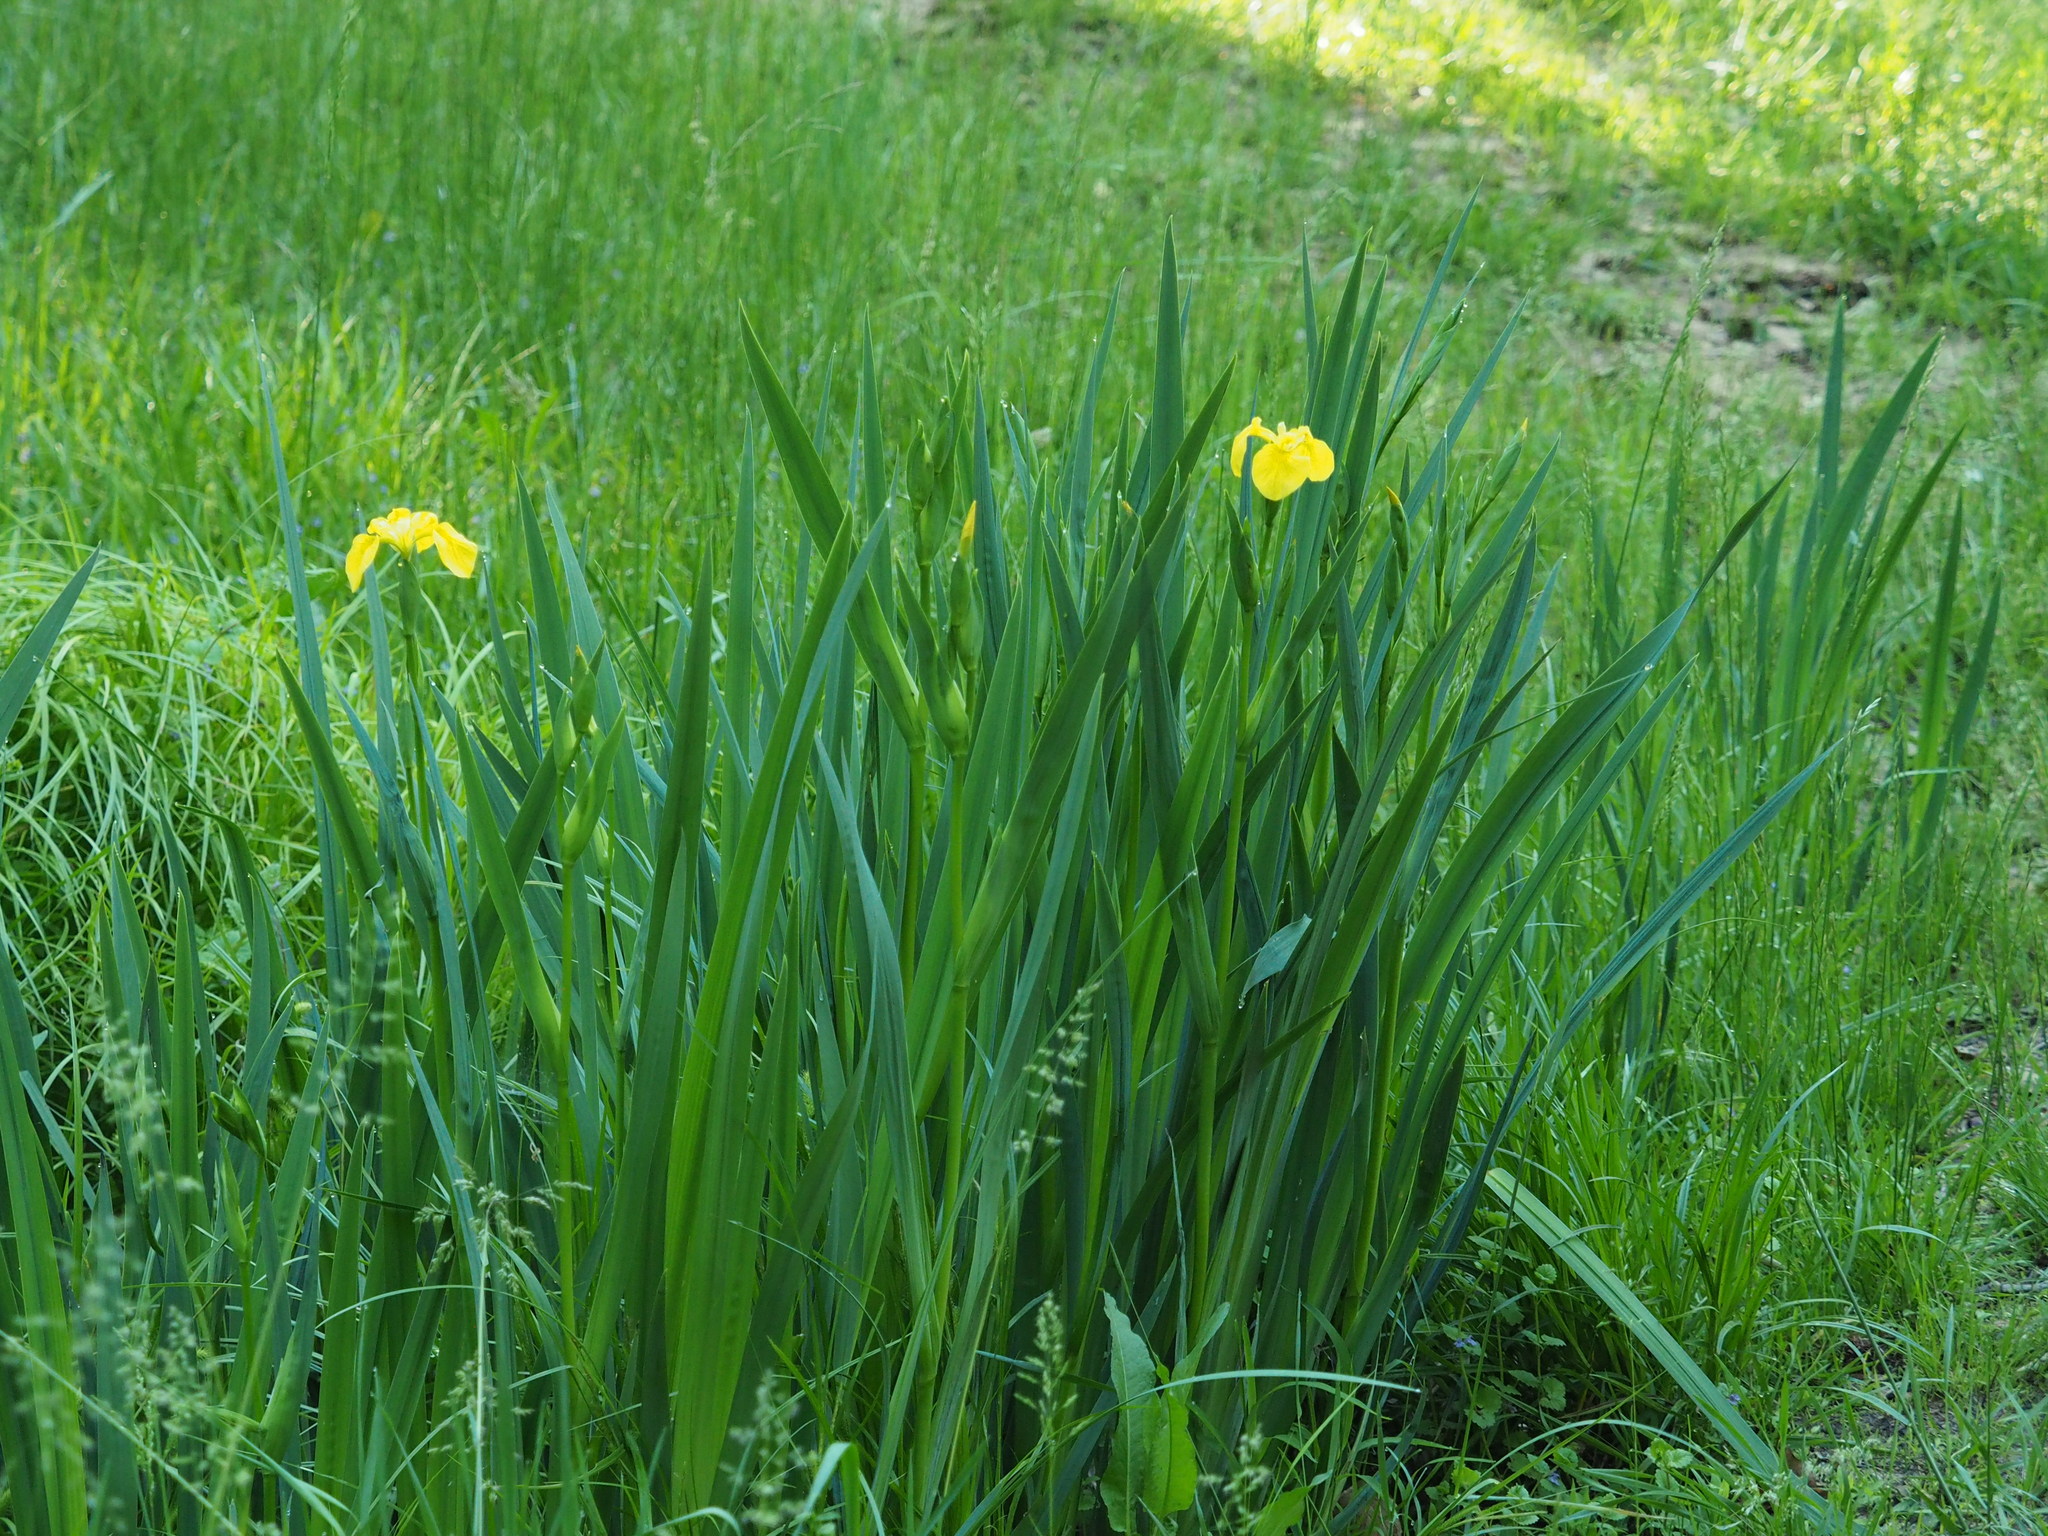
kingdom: Plantae
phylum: Tracheophyta
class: Liliopsida
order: Asparagales
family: Iridaceae
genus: Iris
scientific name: Iris pseudacorus
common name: Yellow flag
